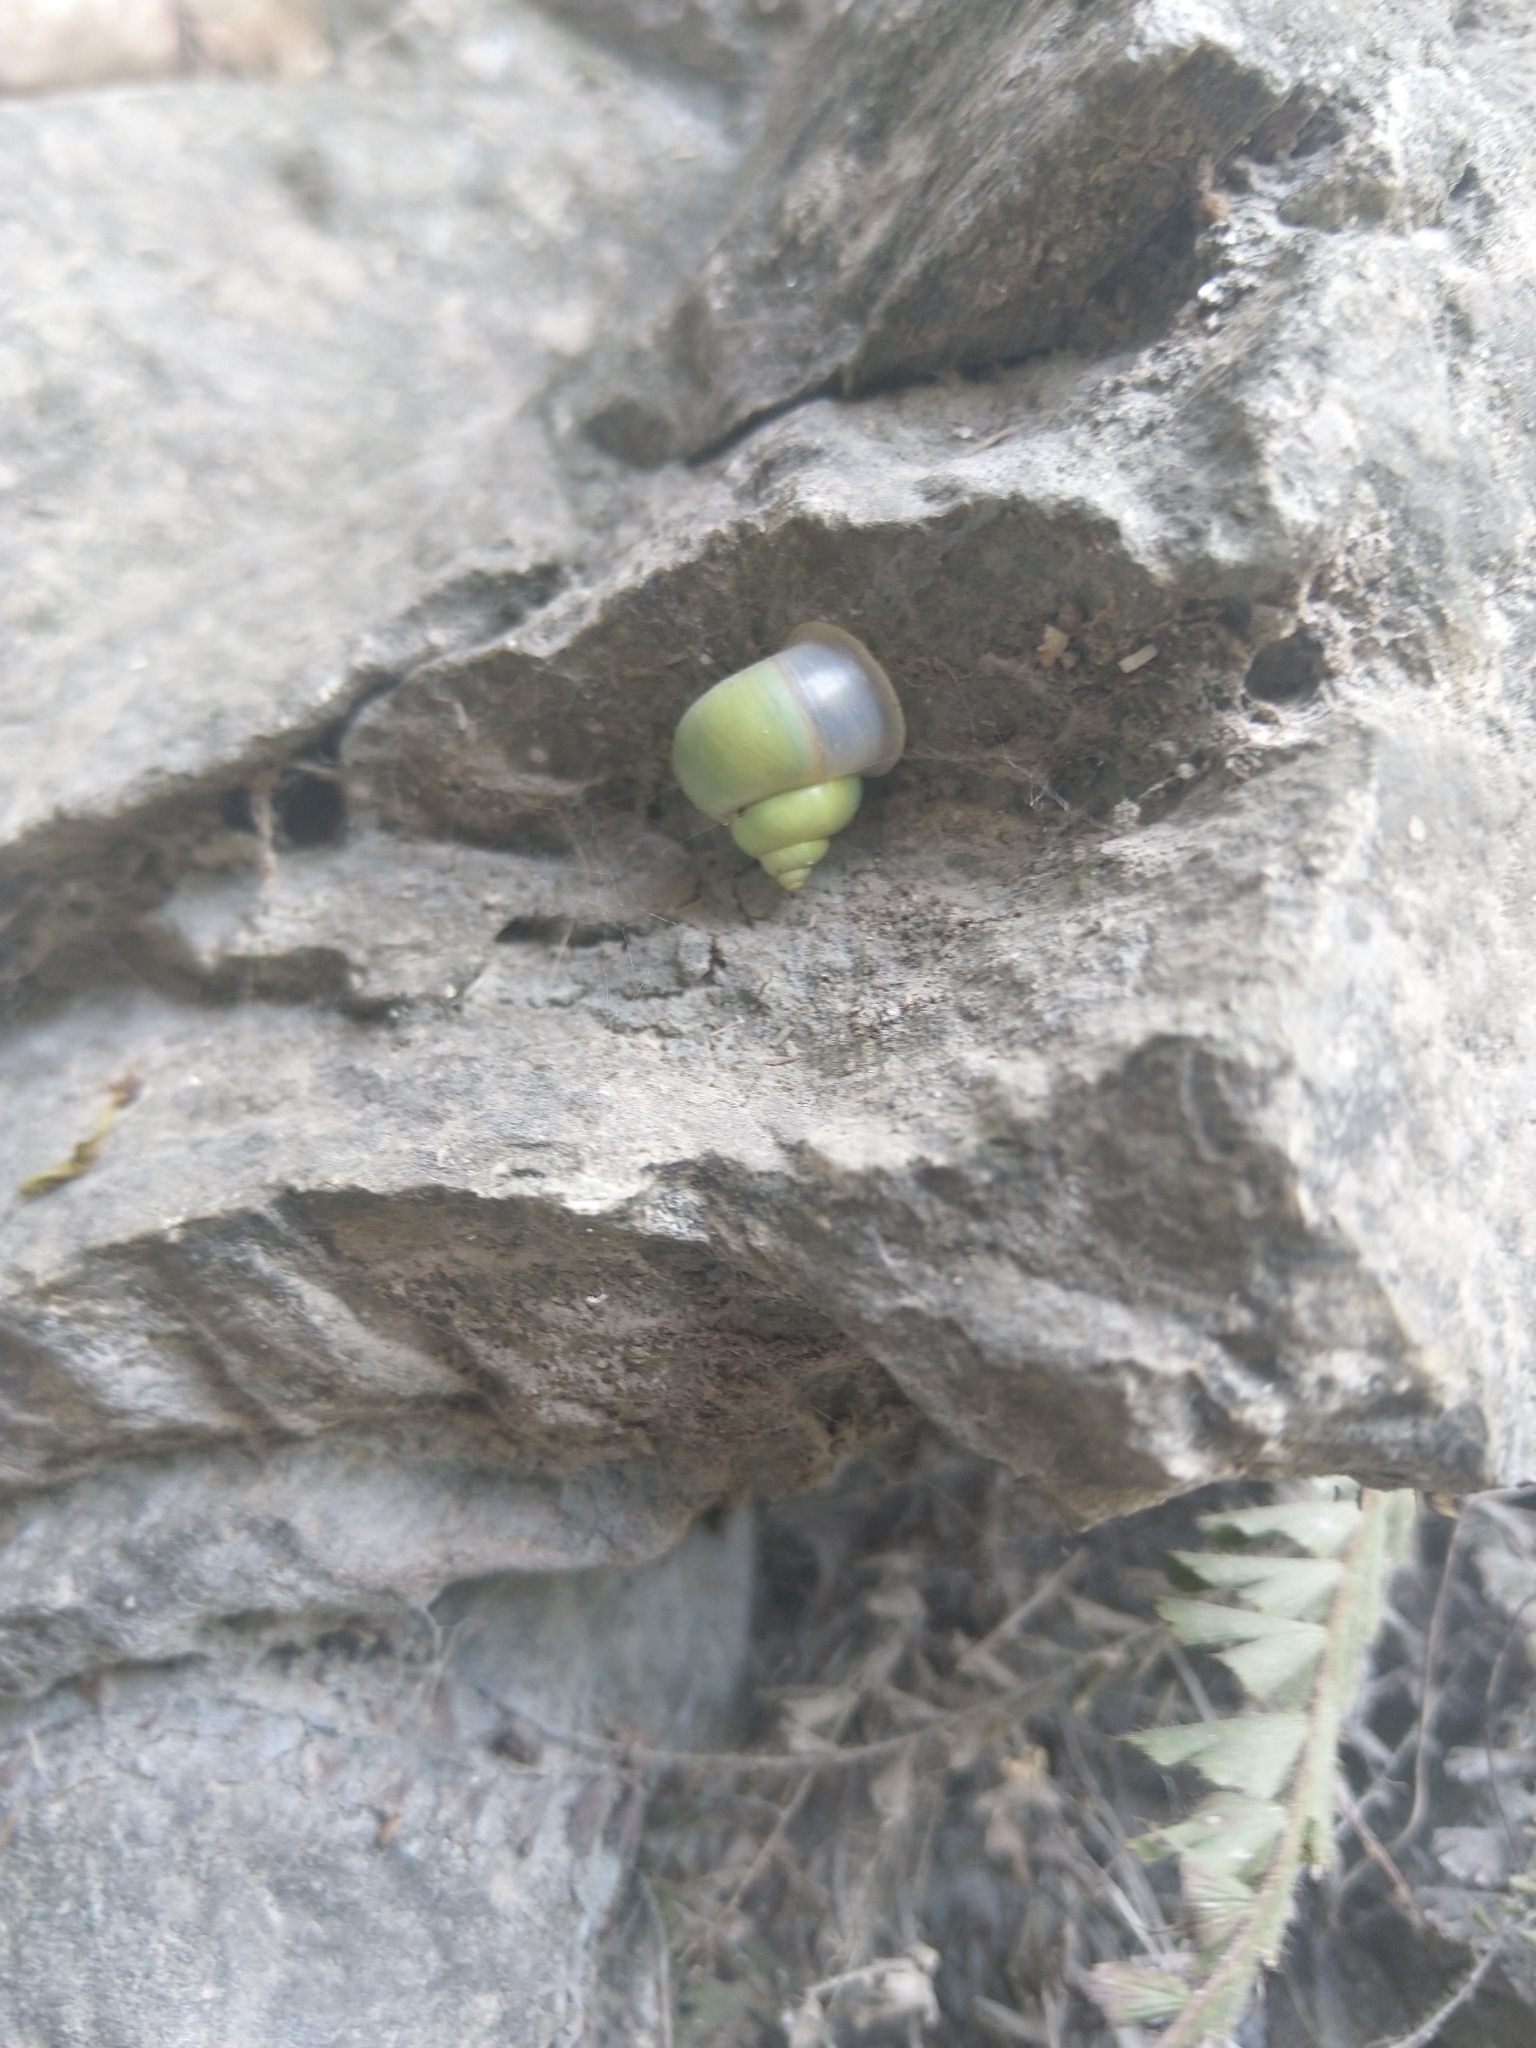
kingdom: Animalia
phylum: Mollusca
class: Gastropoda
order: Architaenioglossa
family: Cyclophoridae
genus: Leptopoma
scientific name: Leptopoma nitidum
